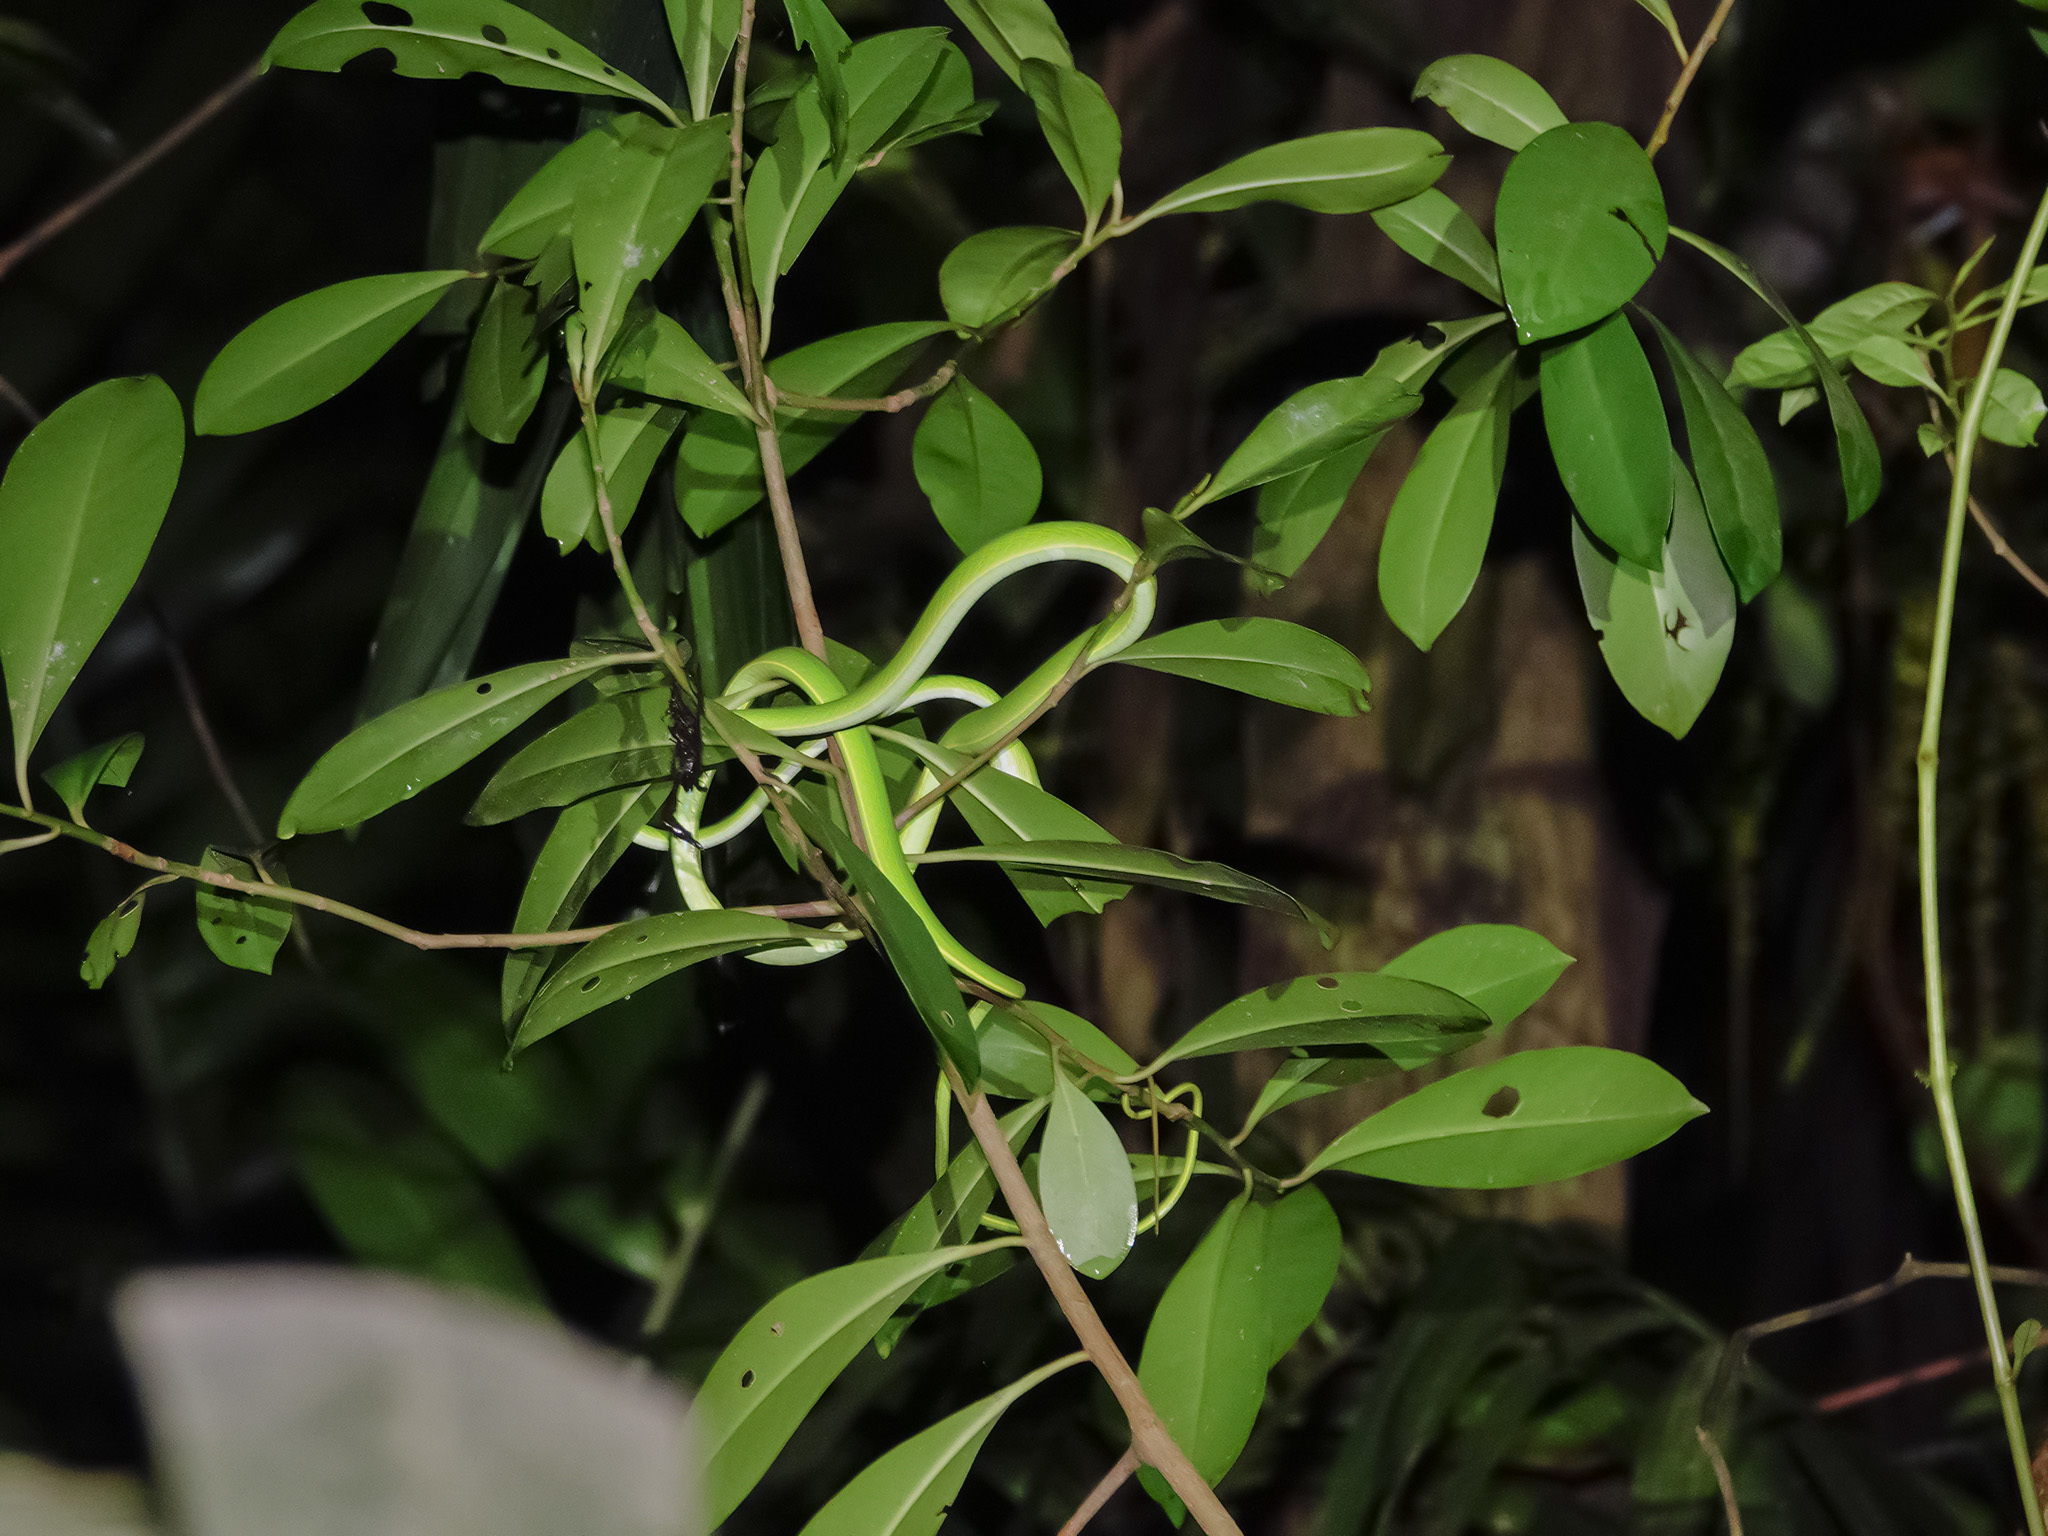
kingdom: Animalia
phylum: Chordata
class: Squamata
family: Colubridae
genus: Ahaetulla
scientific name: Ahaetulla prasina
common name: Oriental whip snake
